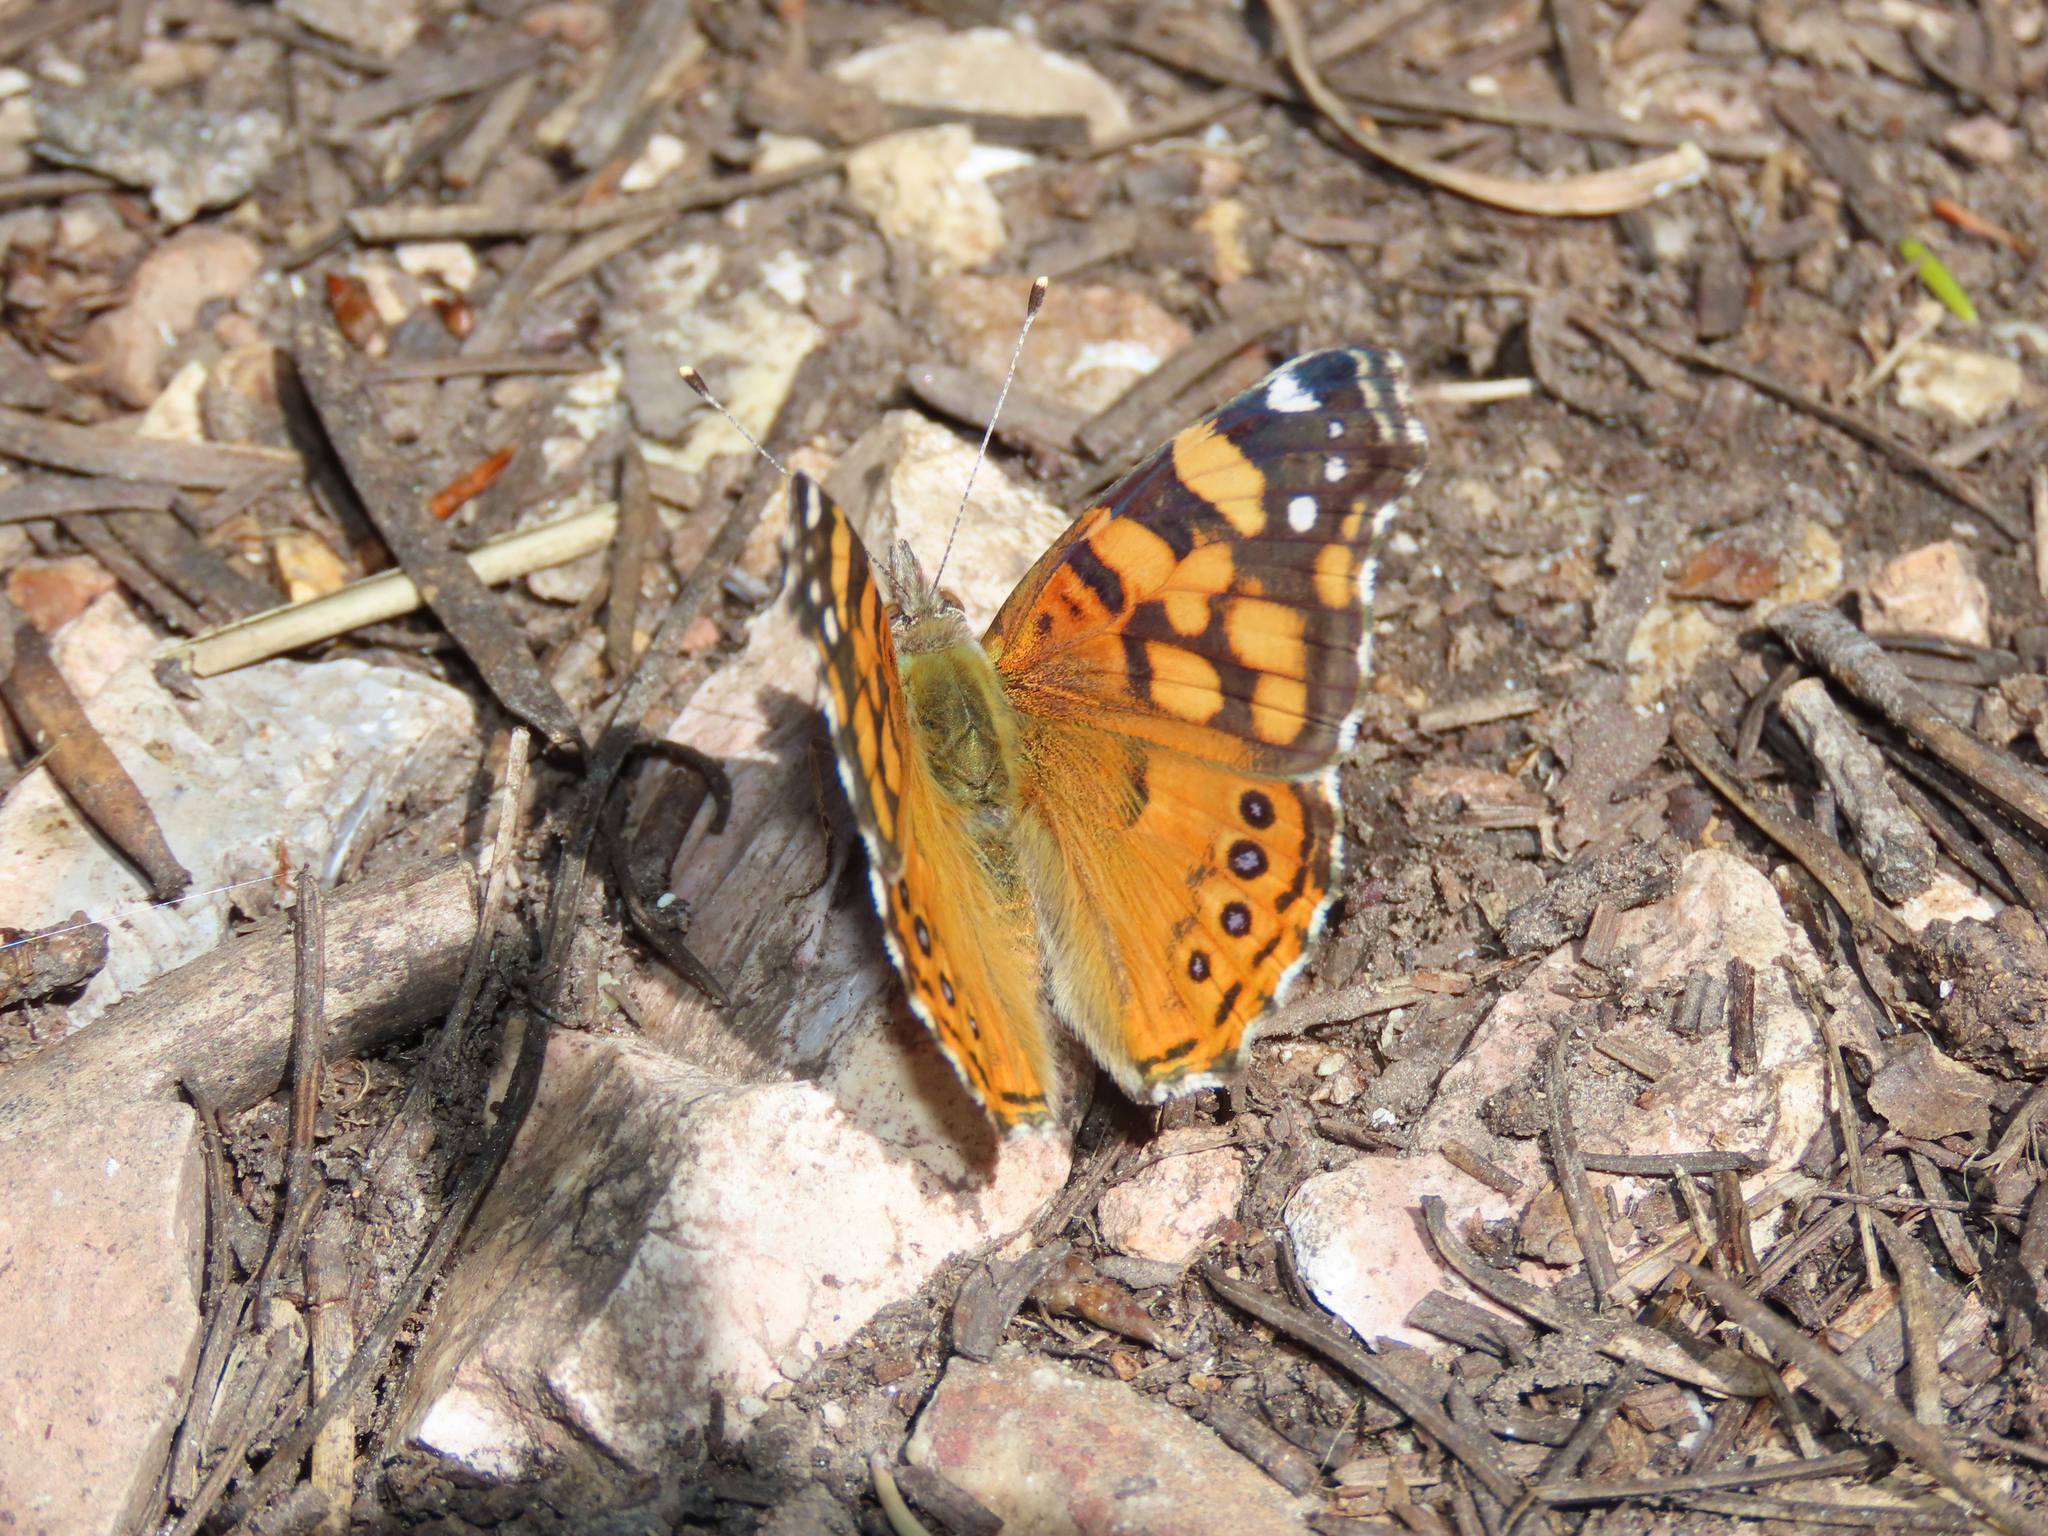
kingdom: Animalia
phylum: Arthropoda
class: Insecta
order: Lepidoptera
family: Nymphalidae
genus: Vanessa
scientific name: Vanessa annabella
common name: West coast lady
